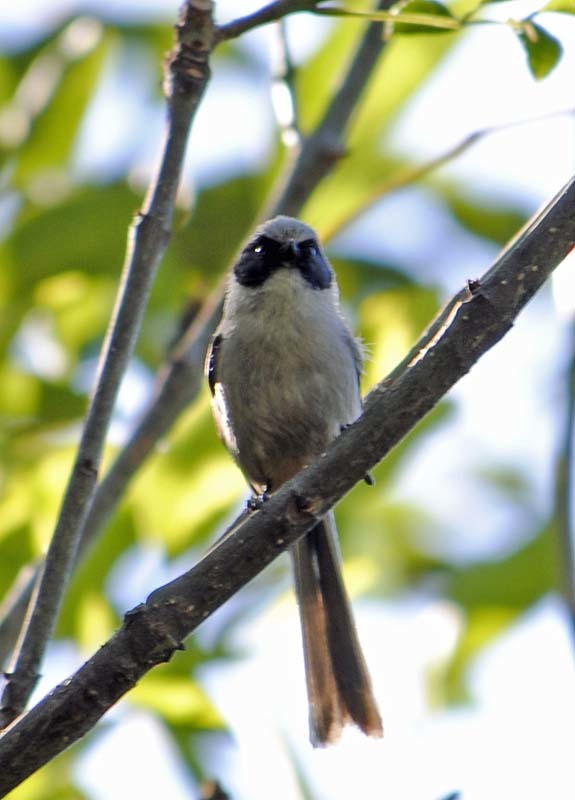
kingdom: Animalia
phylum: Chordata
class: Aves
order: Passeriformes
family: Aegithalidae
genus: Psaltriparus
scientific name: Psaltriparus minimus
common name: American bushtit
